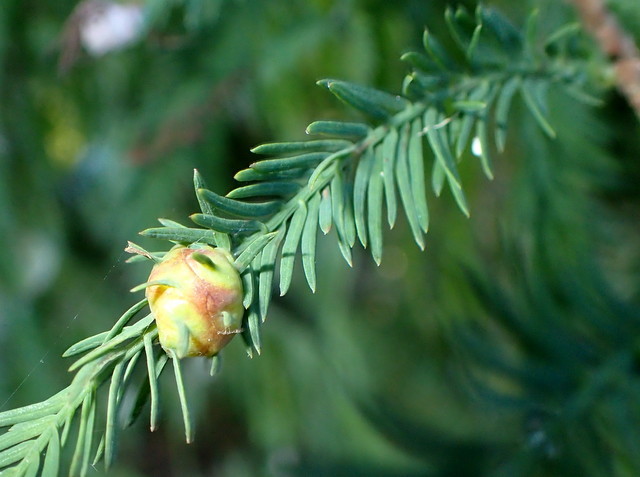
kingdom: Animalia
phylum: Arthropoda
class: Insecta
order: Diptera
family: Cecidomyiidae
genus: Taxodiomyia
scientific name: Taxodiomyia cupressiananassa
